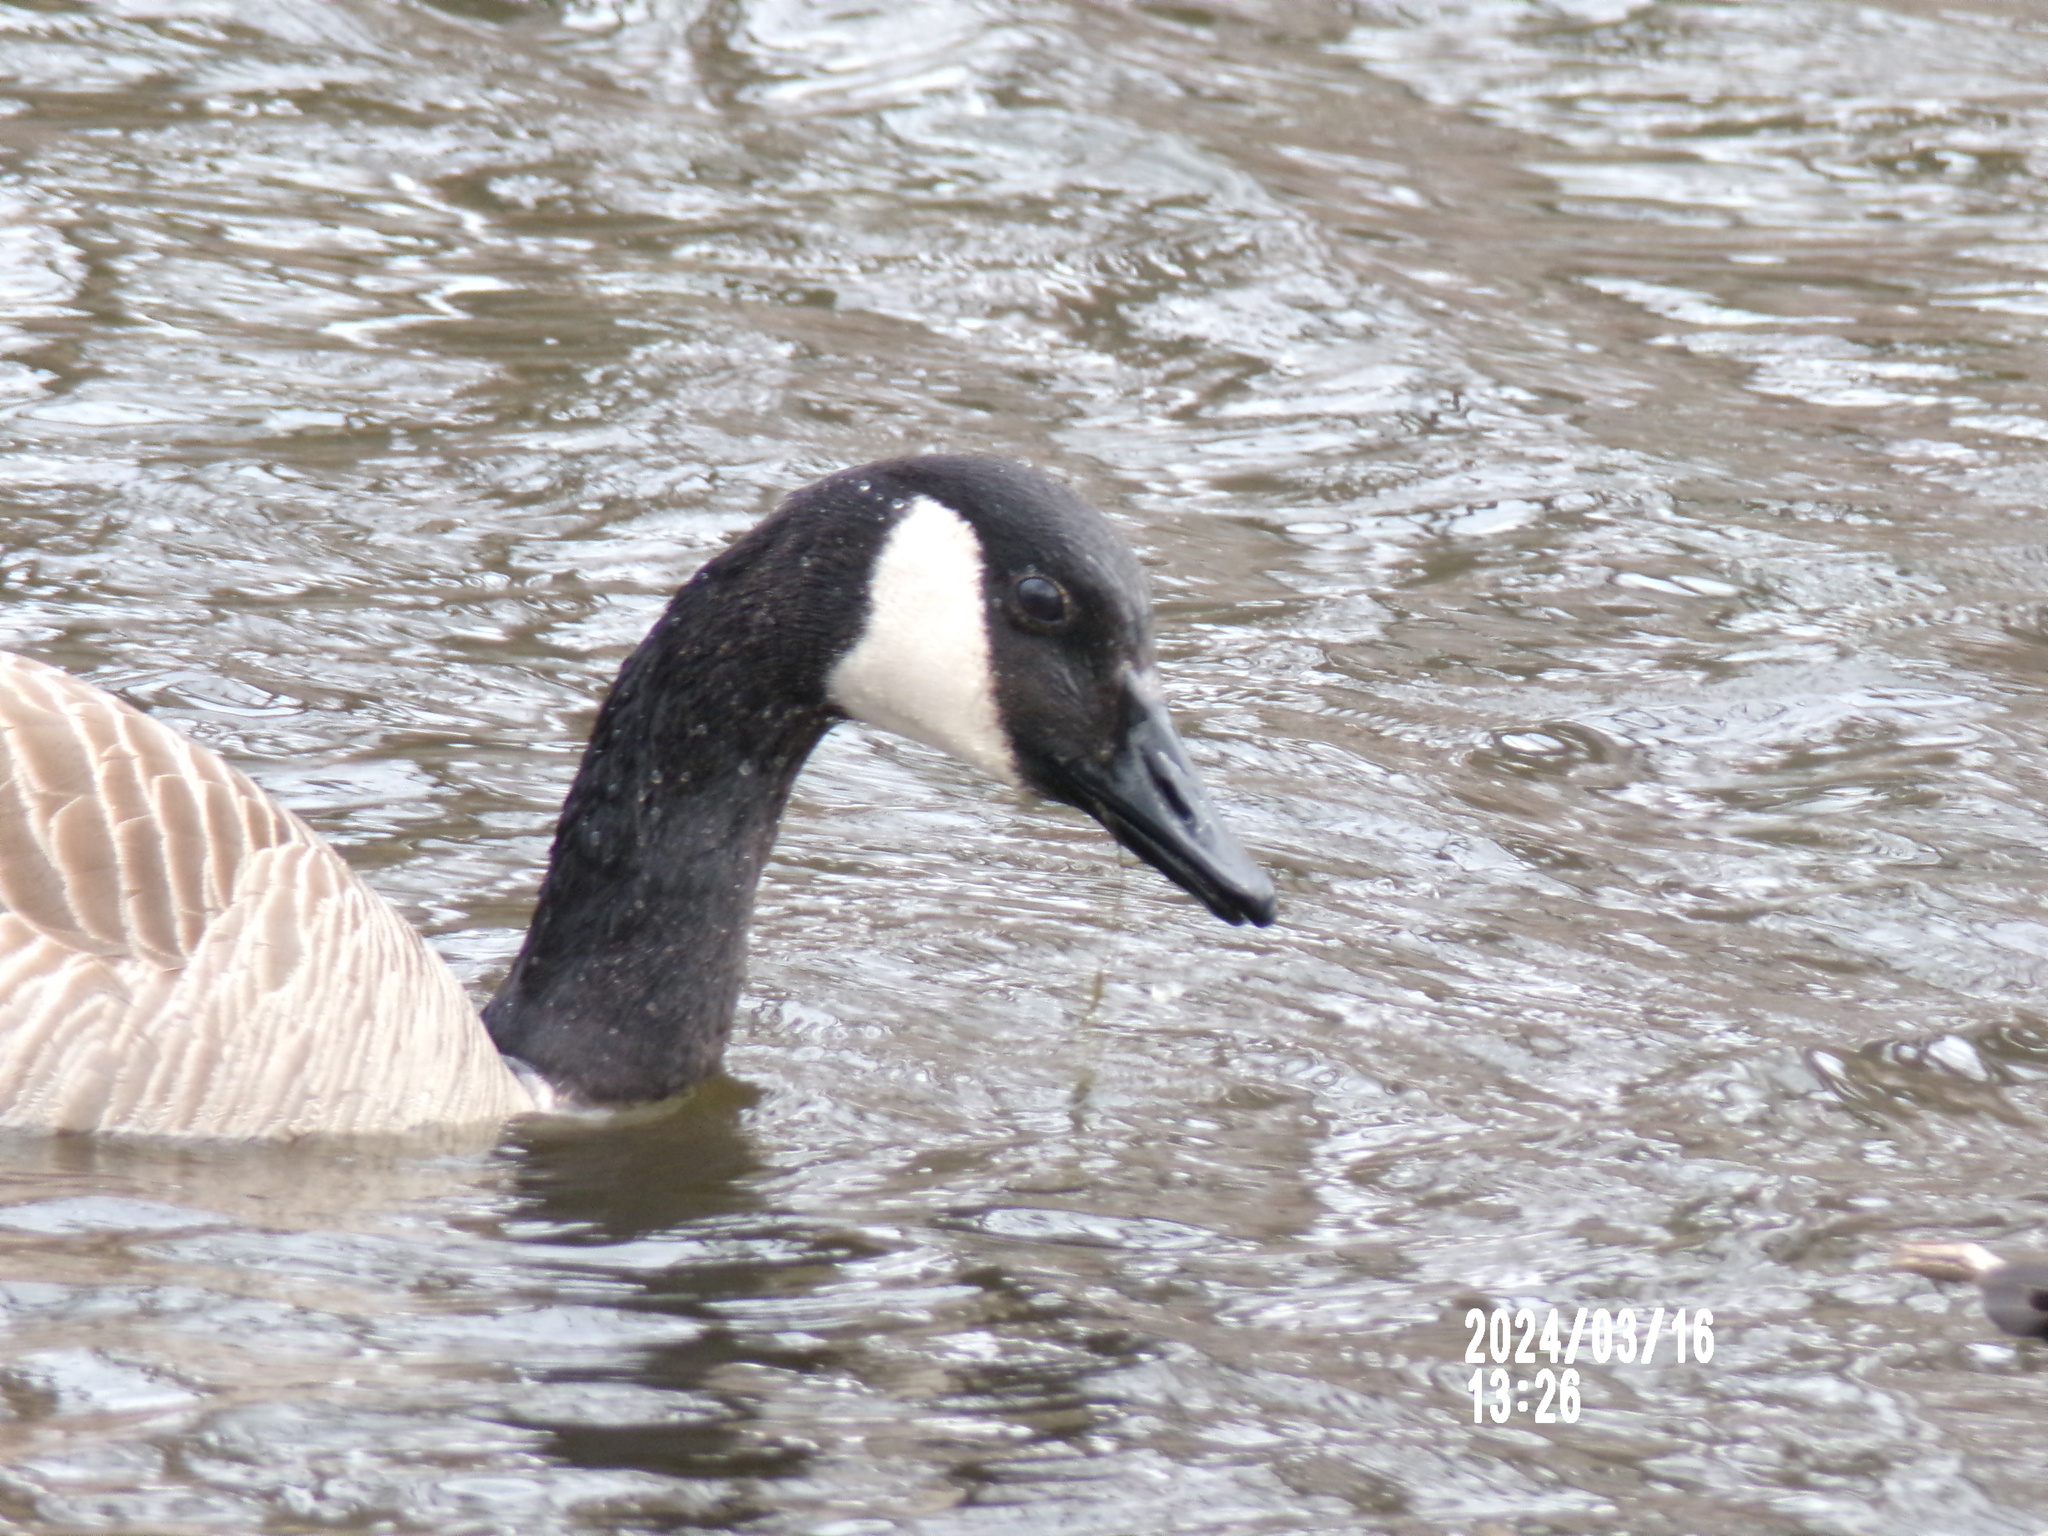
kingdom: Animalia
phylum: Chordata
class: Aves
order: Anseriformes
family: Anatidae
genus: Branta
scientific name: Branta canadensis
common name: Canada goose
